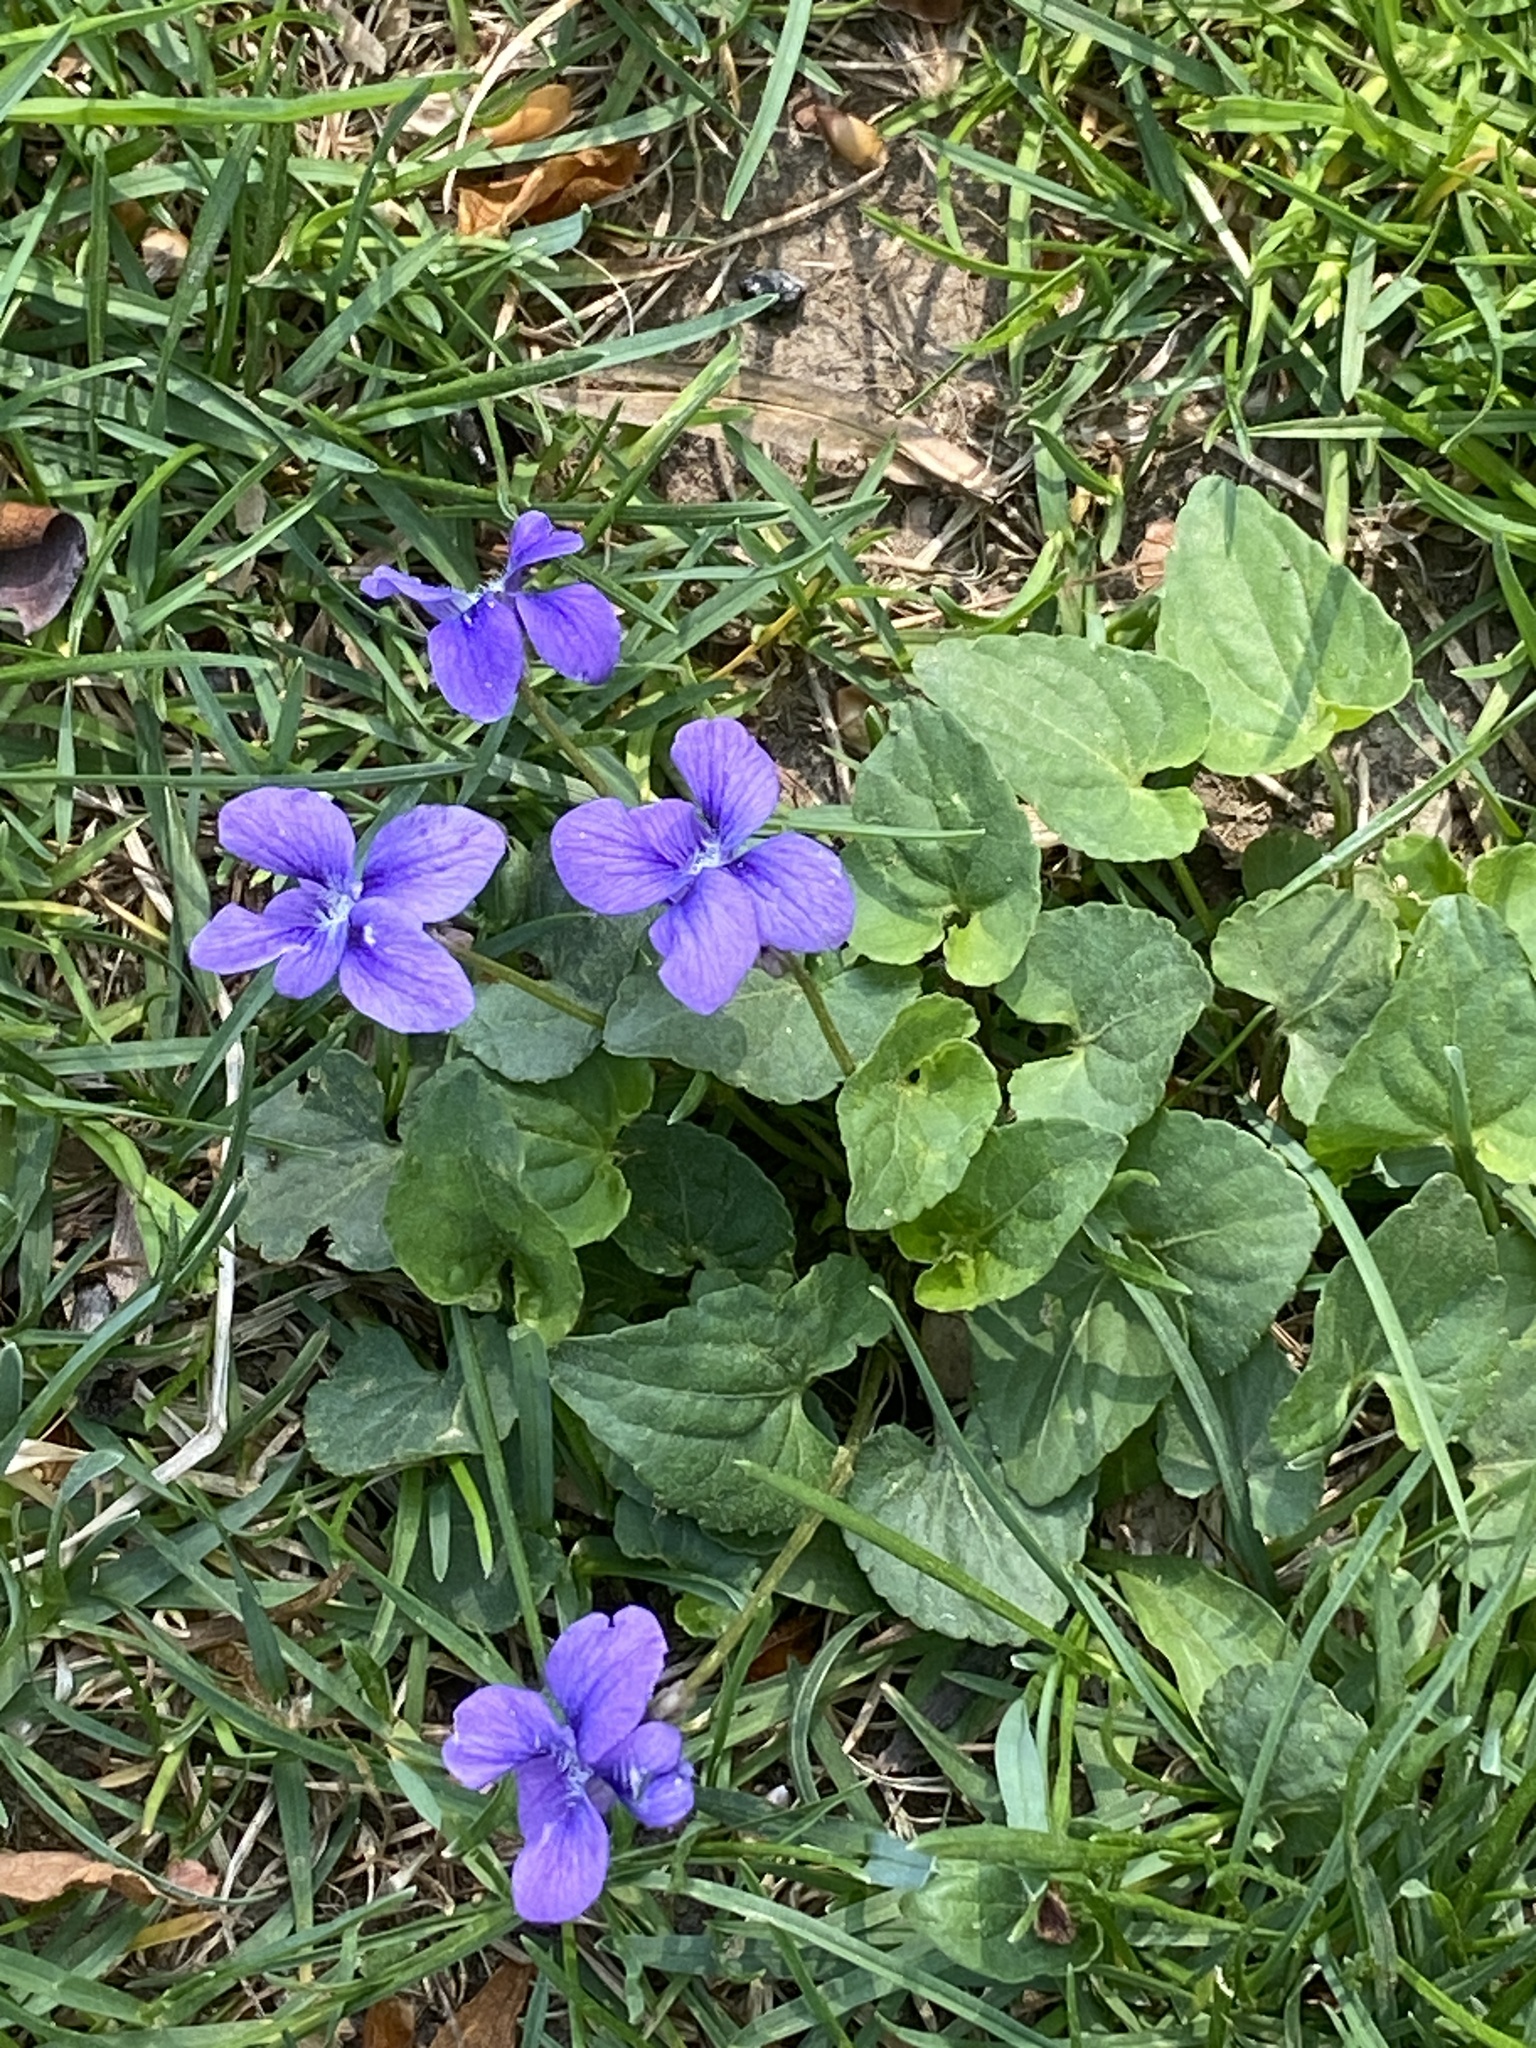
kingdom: Plantae
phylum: Tracheophyta
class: Magnoliopsida
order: Malpighiales
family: Violaceae
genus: Viola
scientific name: Viola sororia
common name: Dooryard violet
